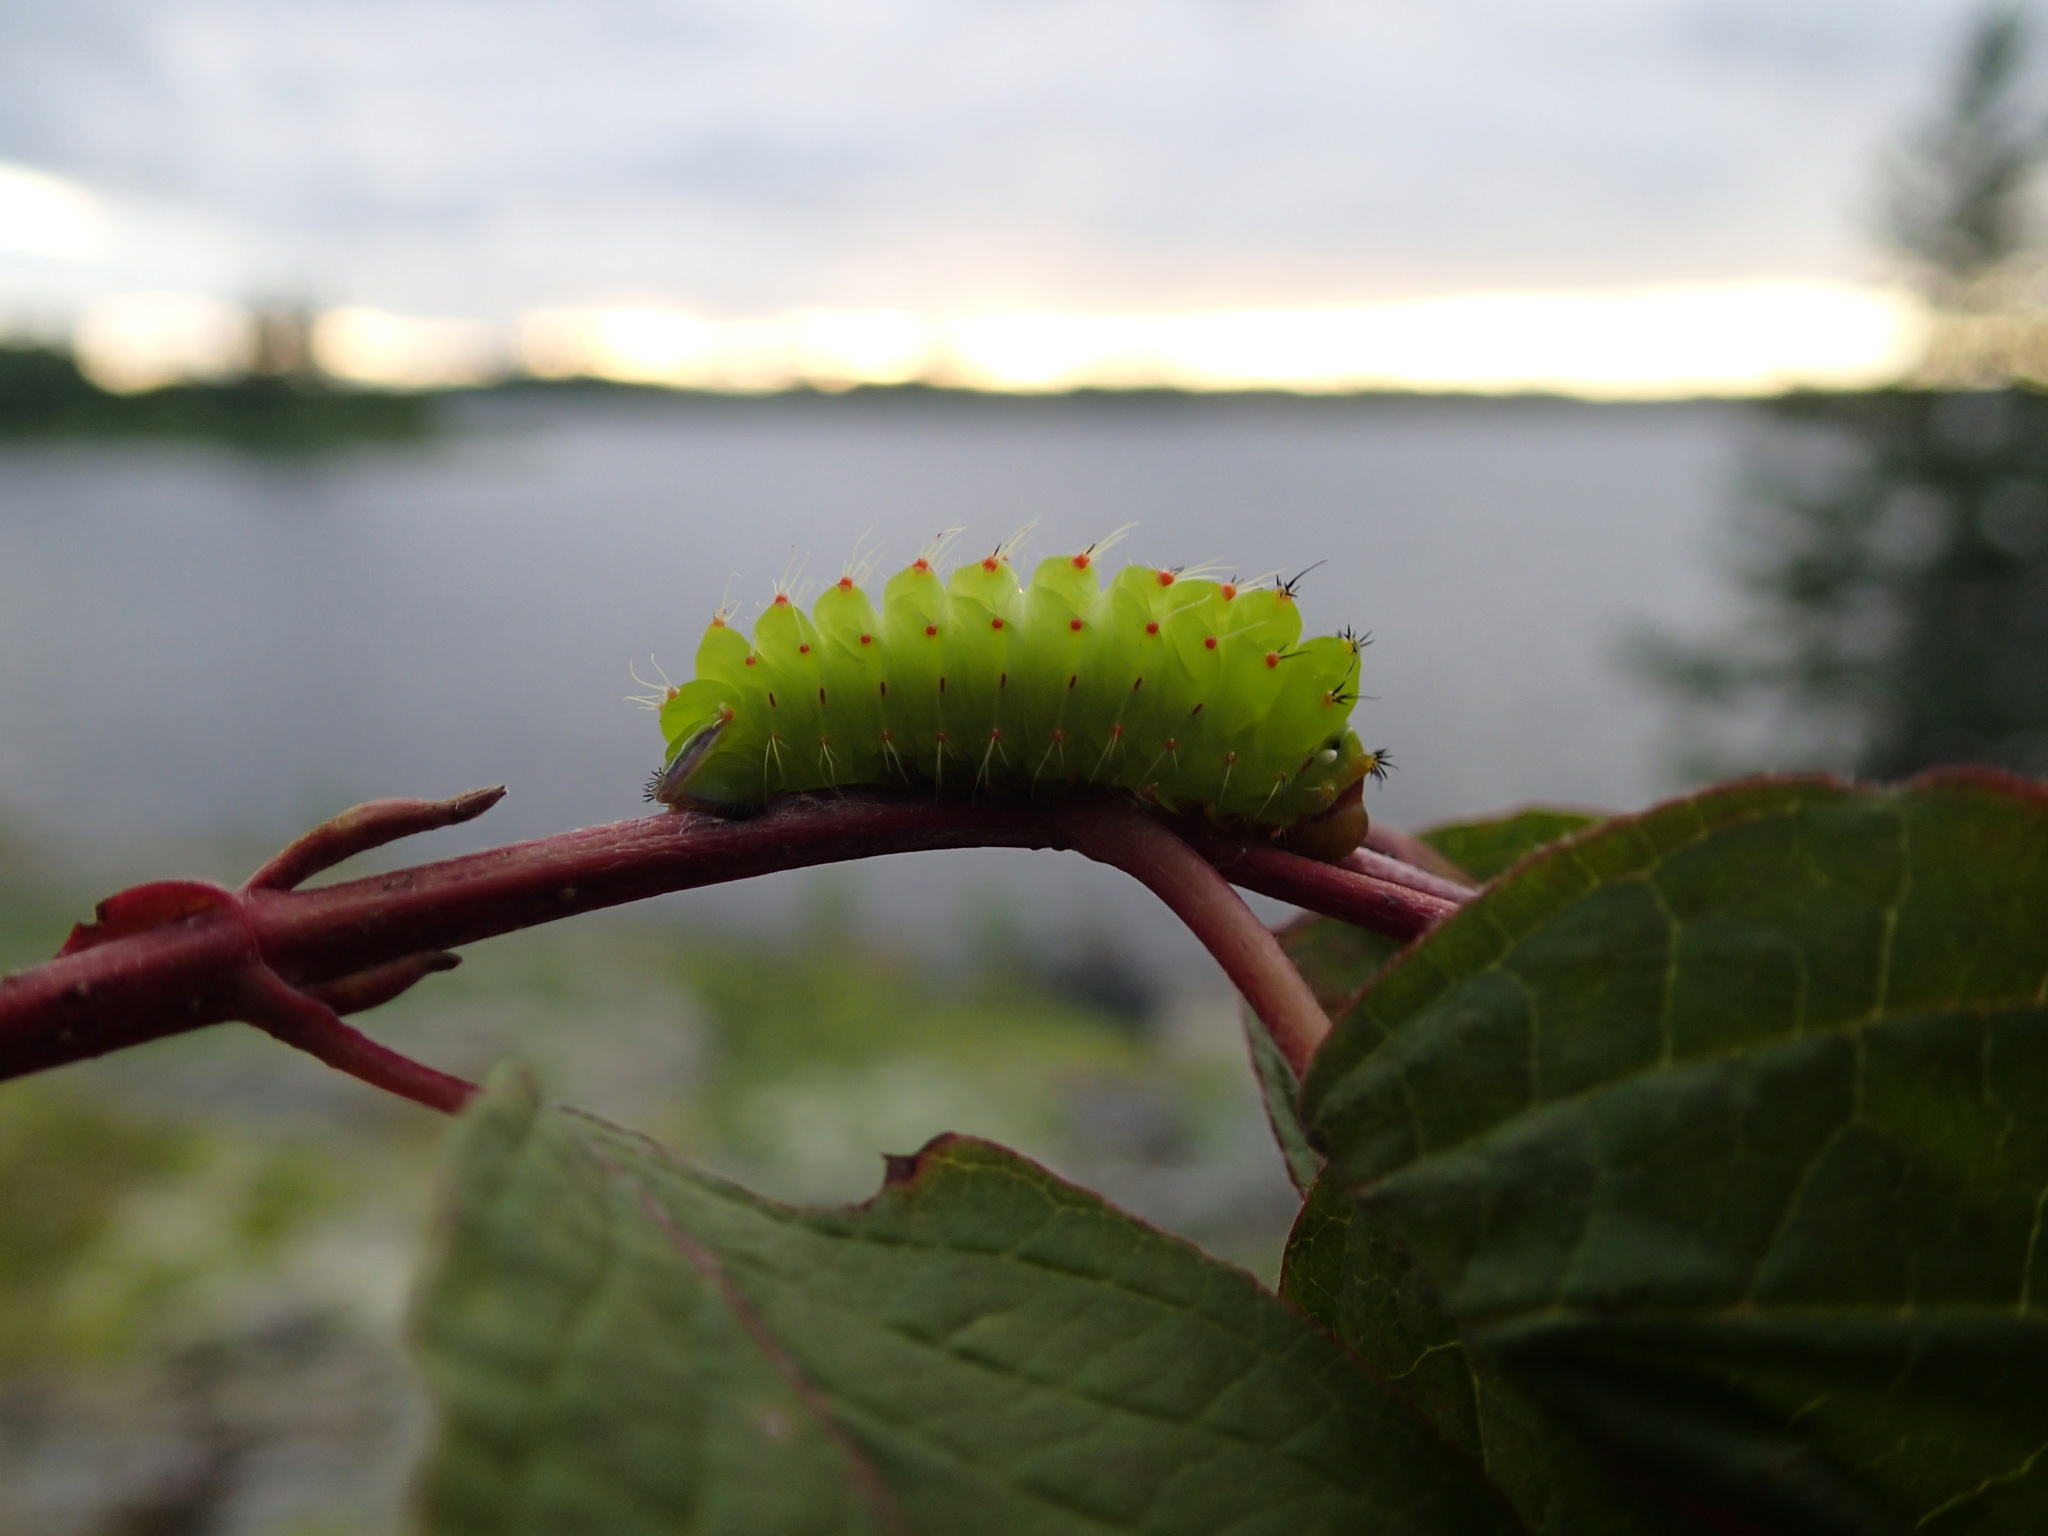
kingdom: Animalia
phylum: Arthropoda
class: Insecta
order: Lepidoptera
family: Saturniidae
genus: Antheraea
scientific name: Antheraea polyphemus
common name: Polyphemus moth
